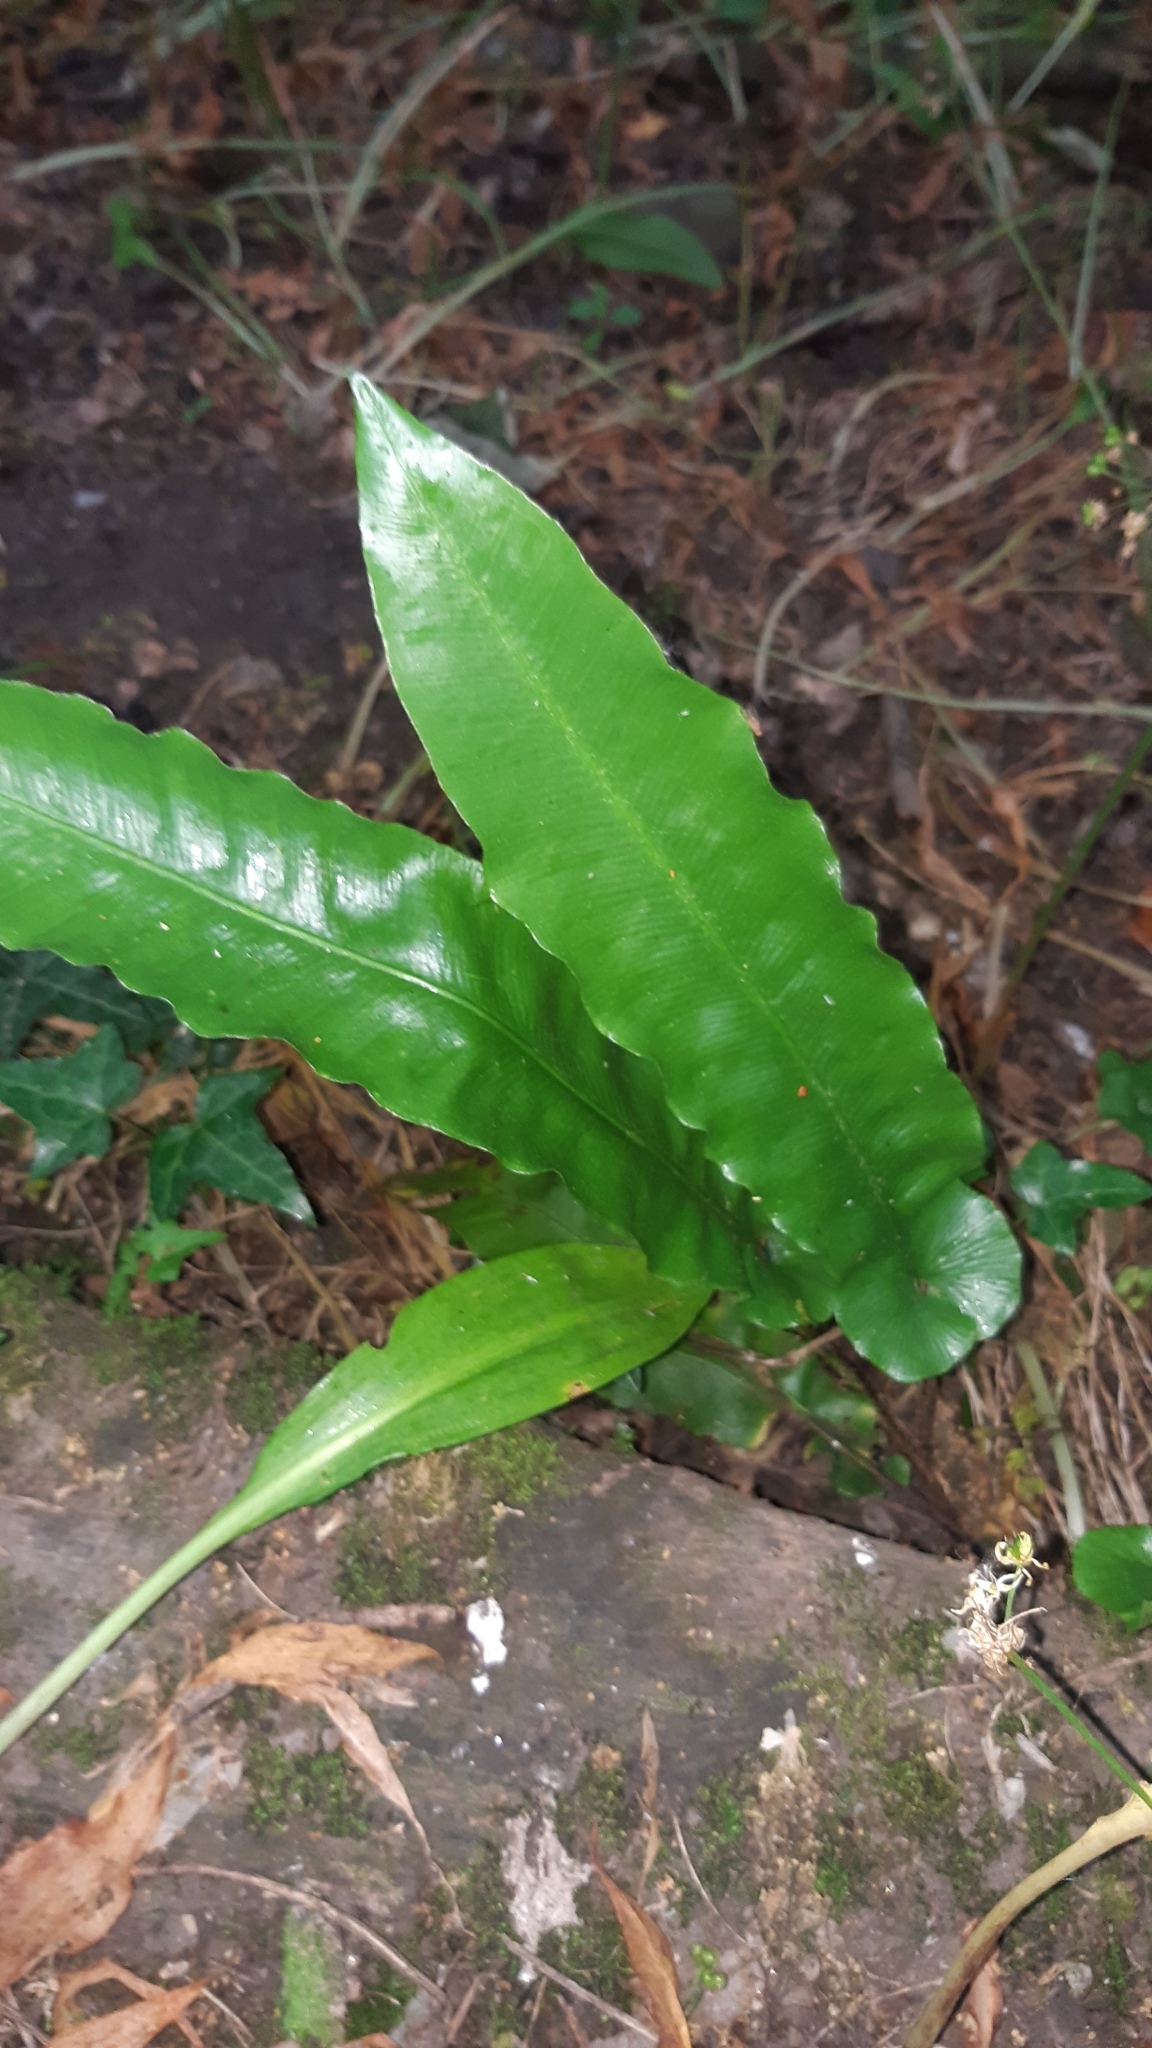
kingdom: Plantae
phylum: Tracheophyta
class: Polypodiopsida
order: Polypodiales
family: Aspleniaceae
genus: Asplenium
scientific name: Asplenium scolopendrium
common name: Hart's-tongue fern
